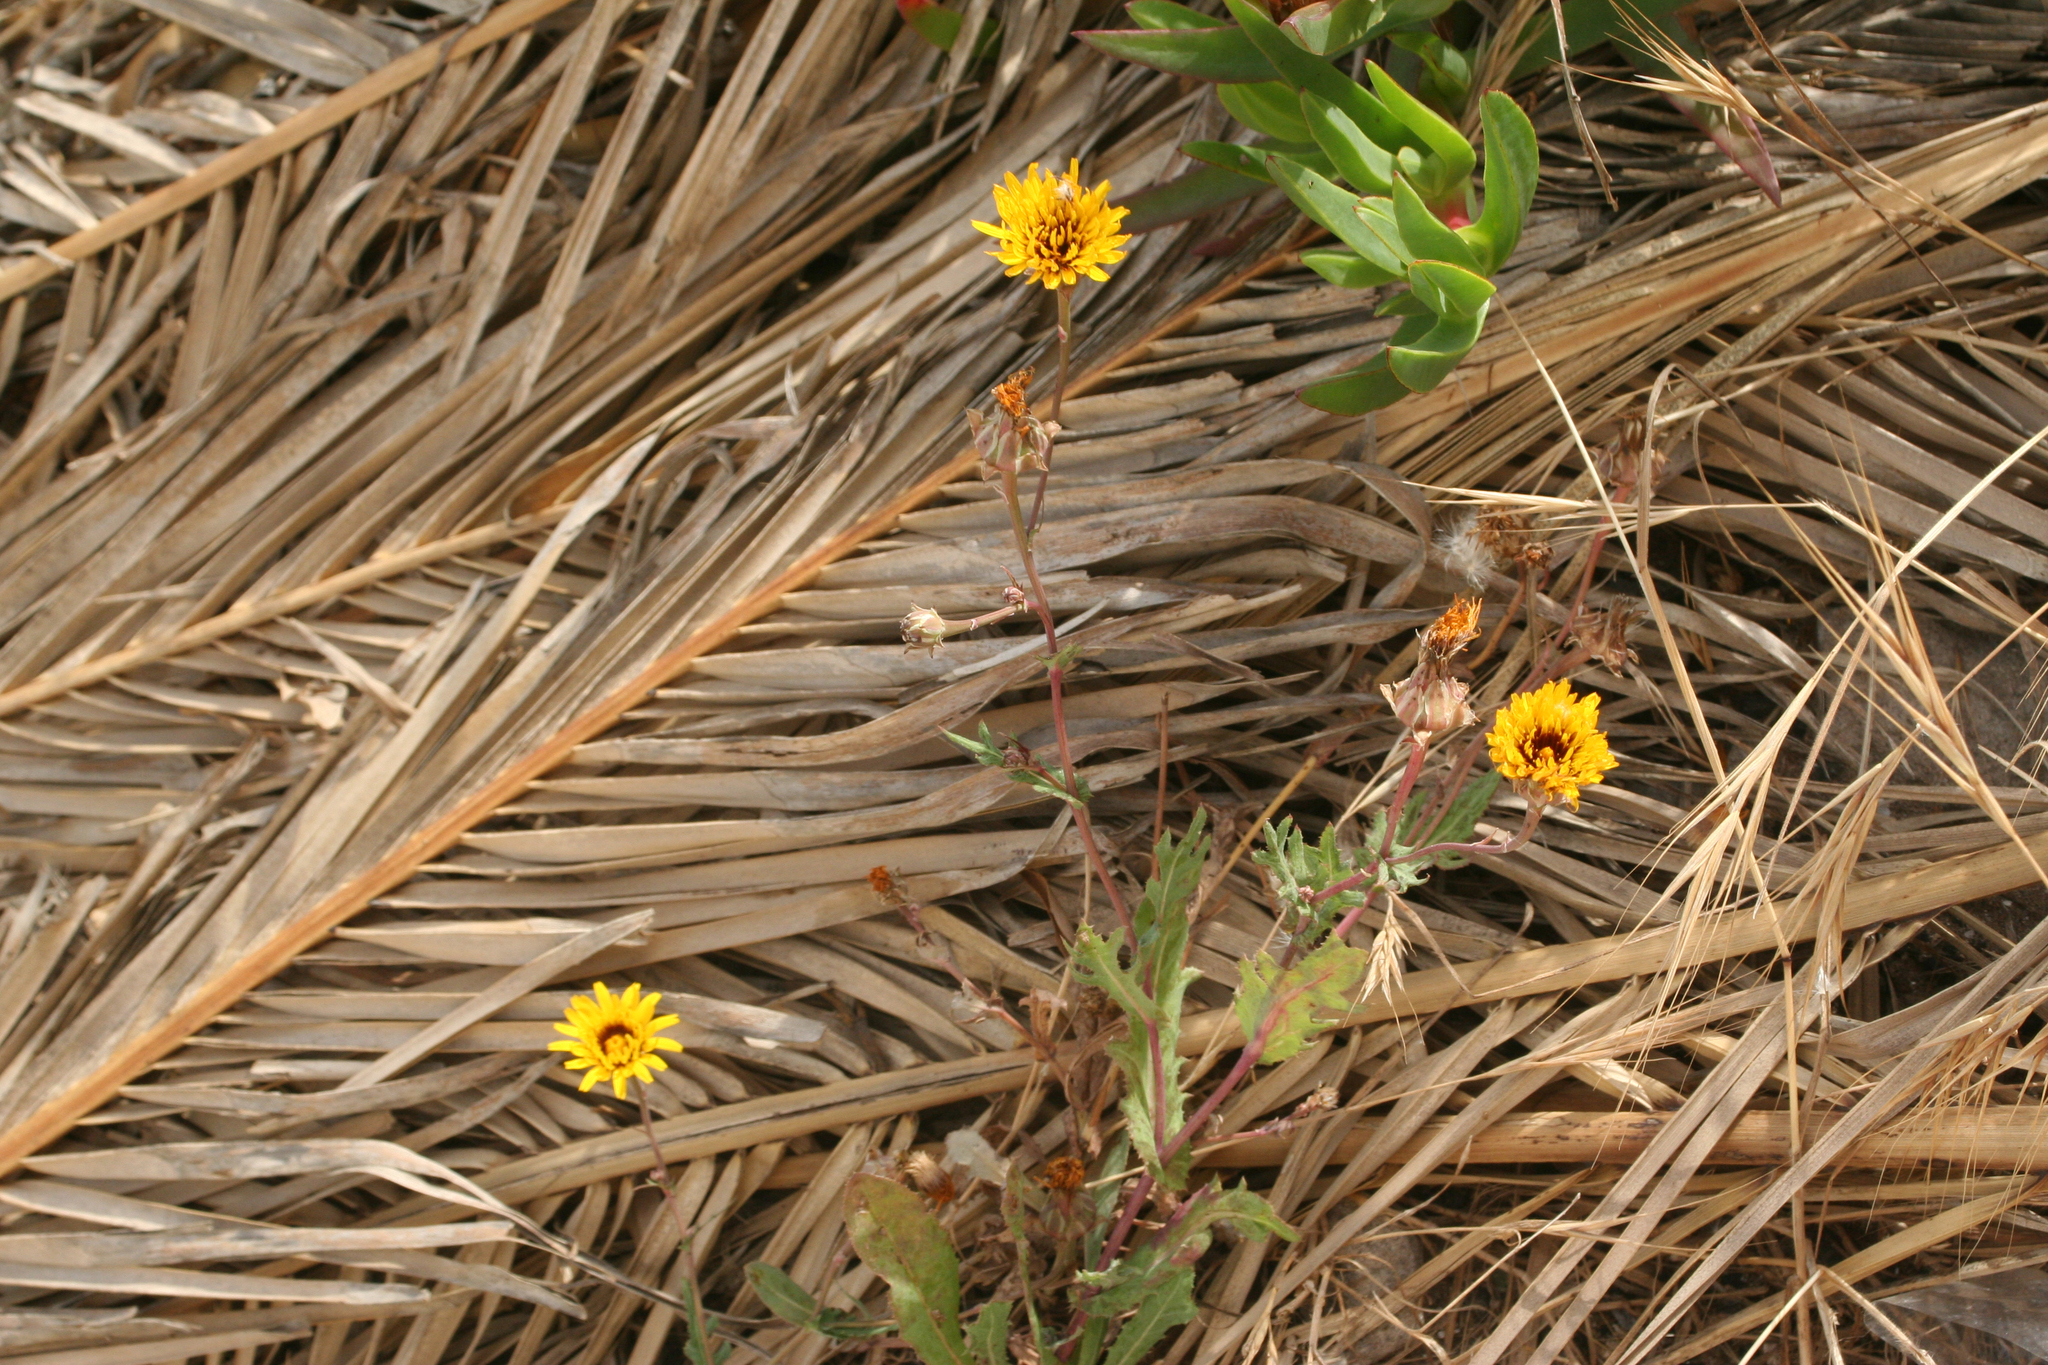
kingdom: Plantae
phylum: Tracheophyta
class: Magnoliopsida
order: Asterales
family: Asteraceae
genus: Reichardia
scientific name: Reichardia tingitana
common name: Reichardia
